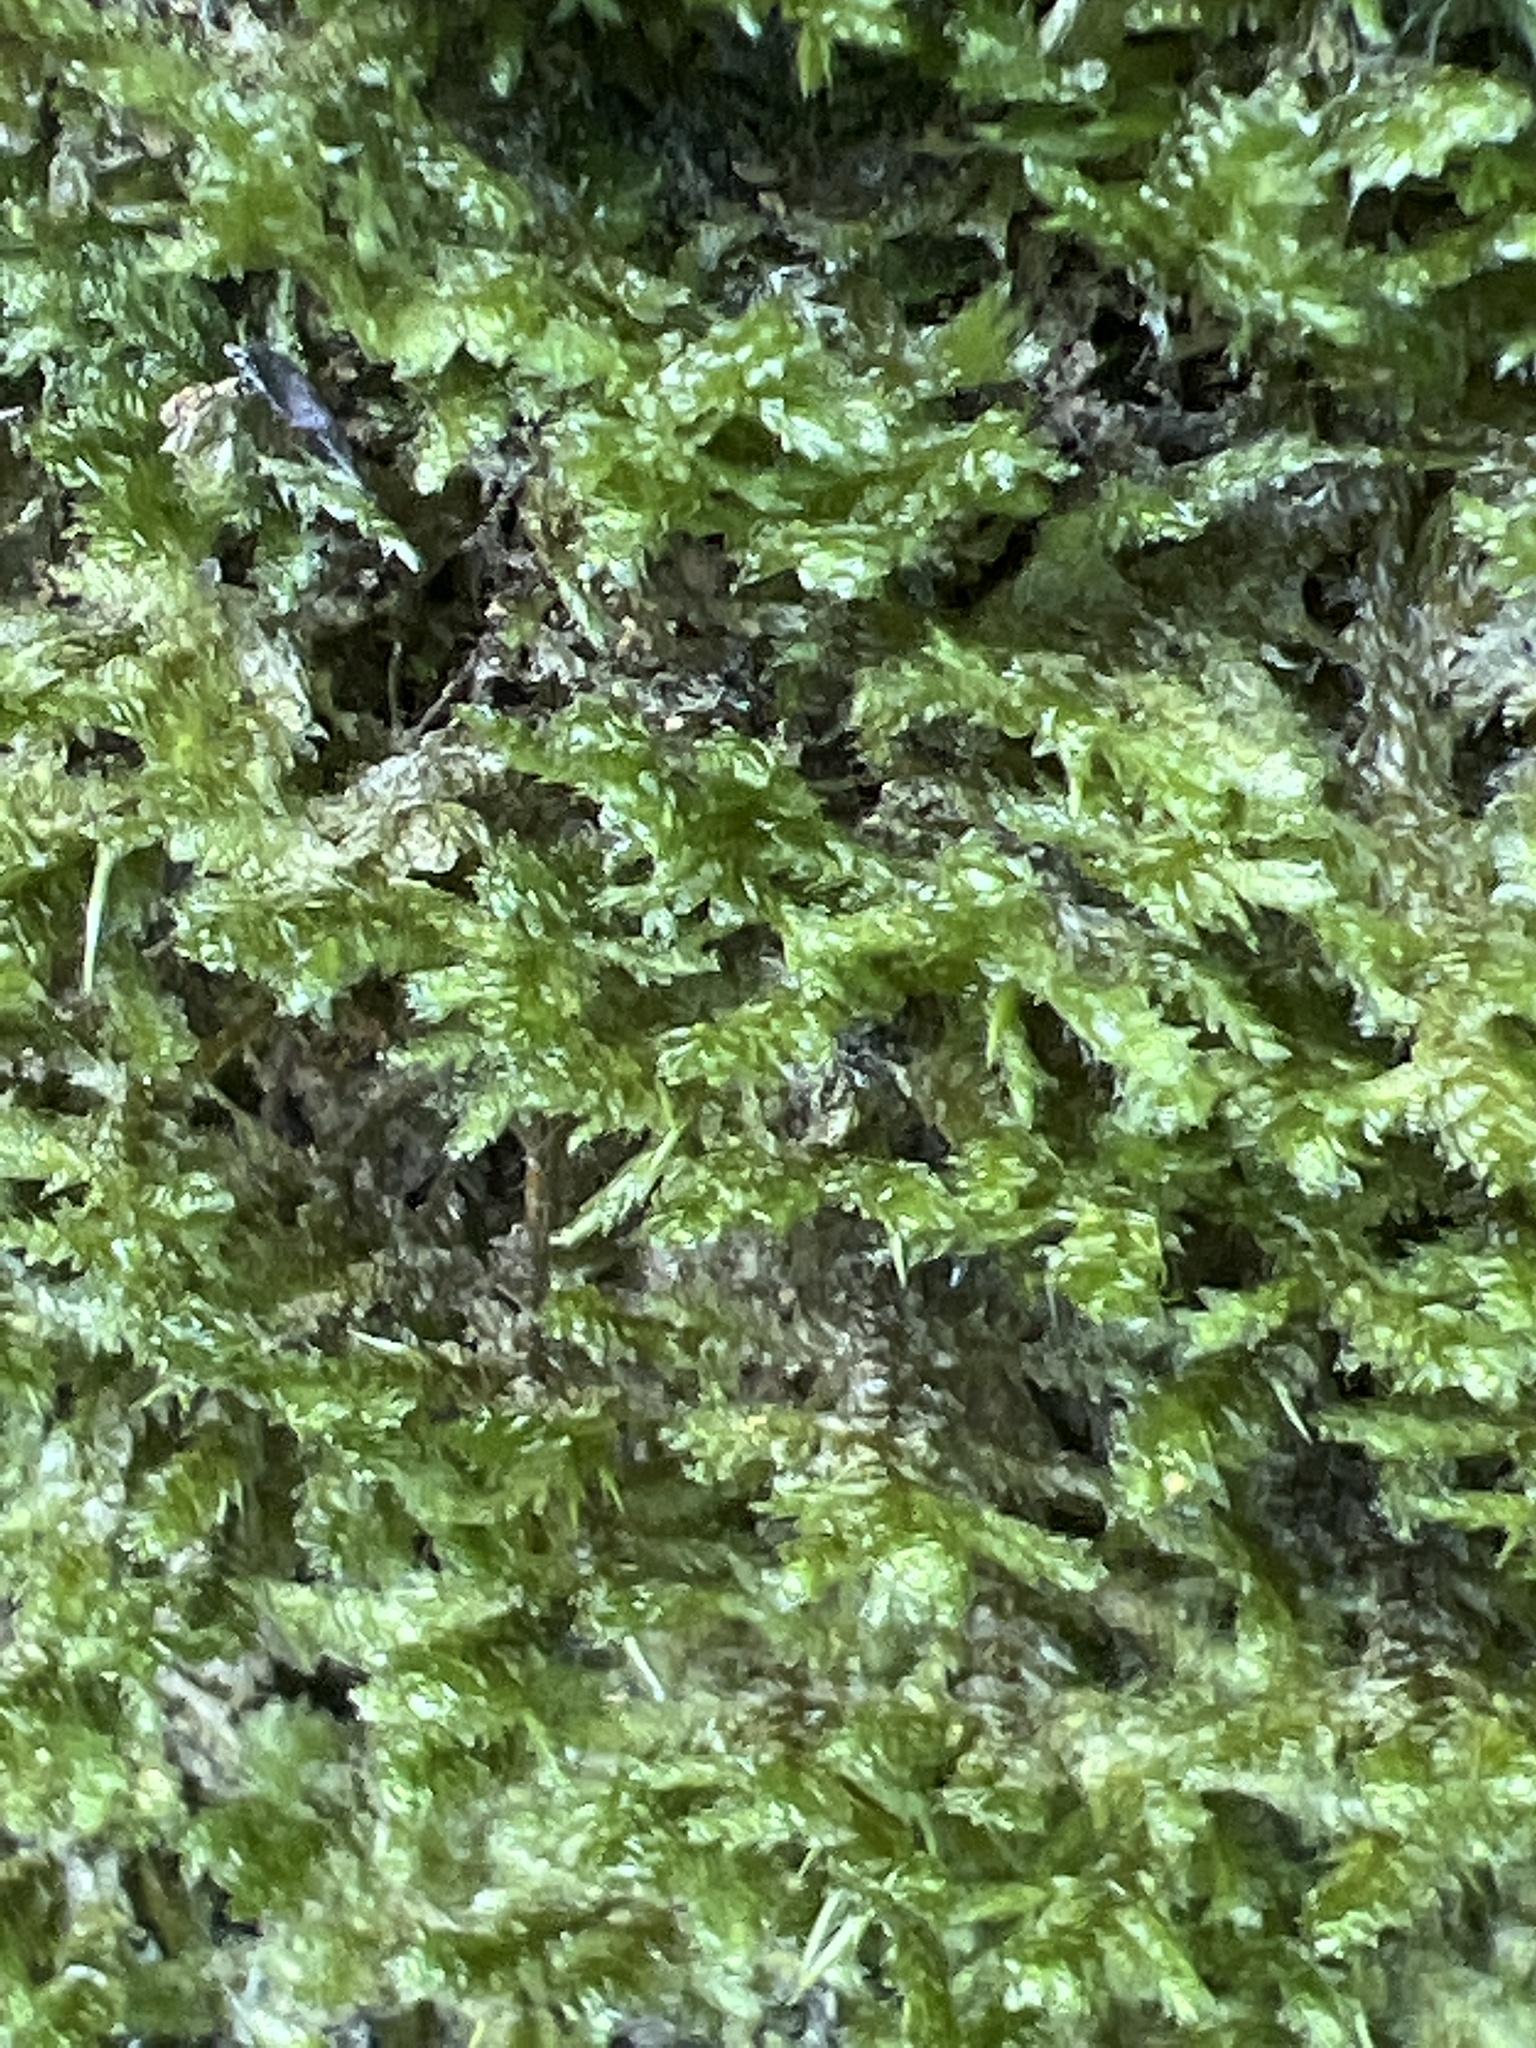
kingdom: Plantae
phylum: Bryophyta
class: Bryopsida
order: Hypnales
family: Neckeraceae
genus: Neckera
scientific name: Neckera pennata
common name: Feathery neckera
